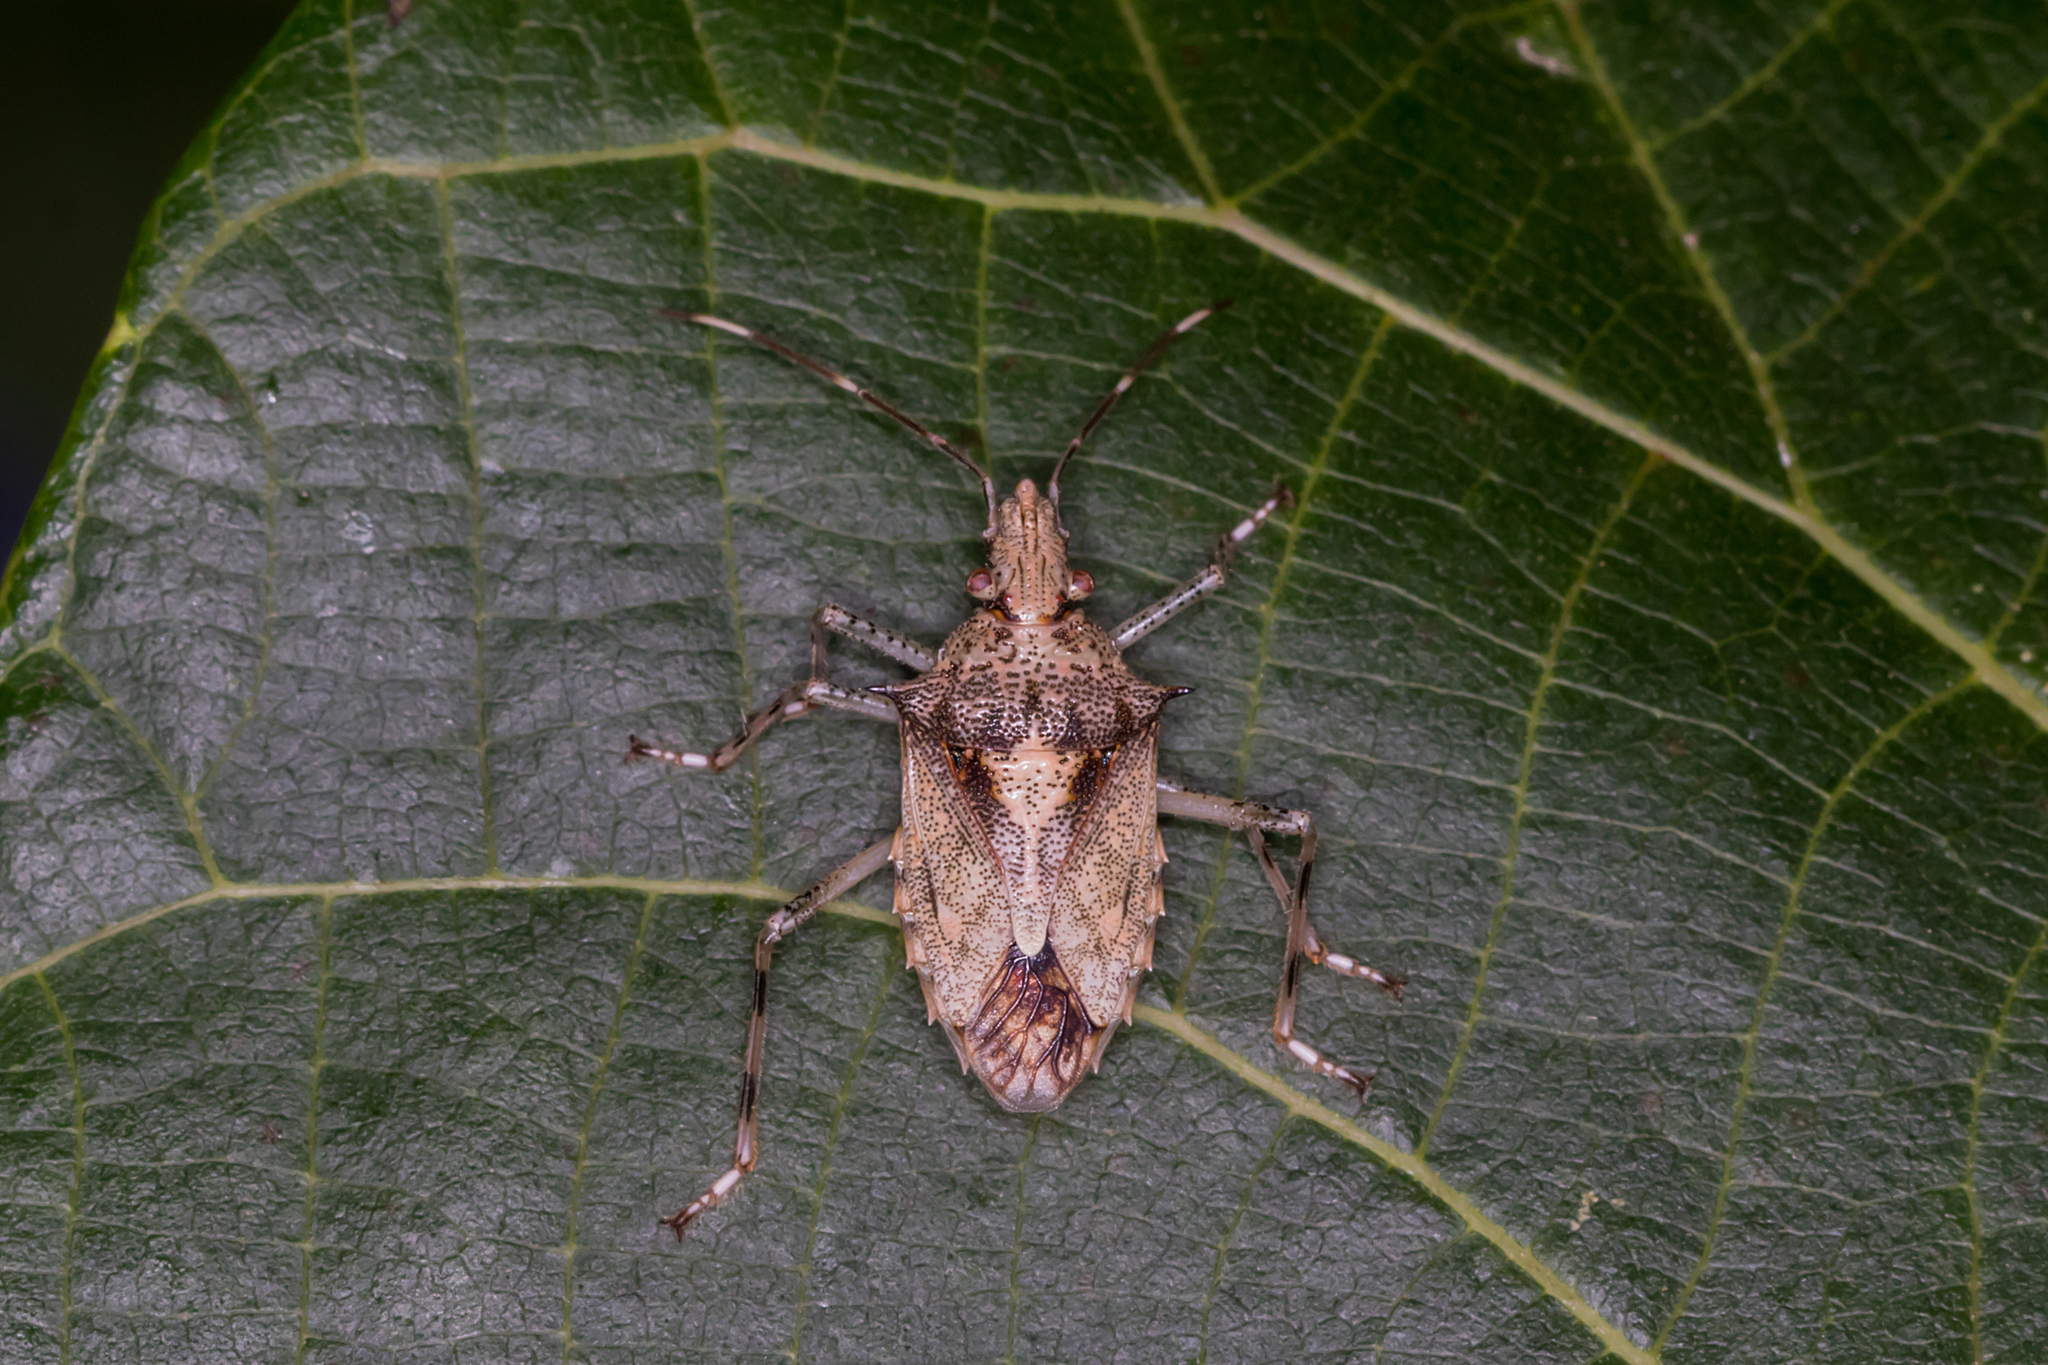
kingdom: Animalia
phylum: Arthropoda
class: Insecta
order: Hemiptera
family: Pentatomidae
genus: Bromocoris
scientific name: Bromocoris
